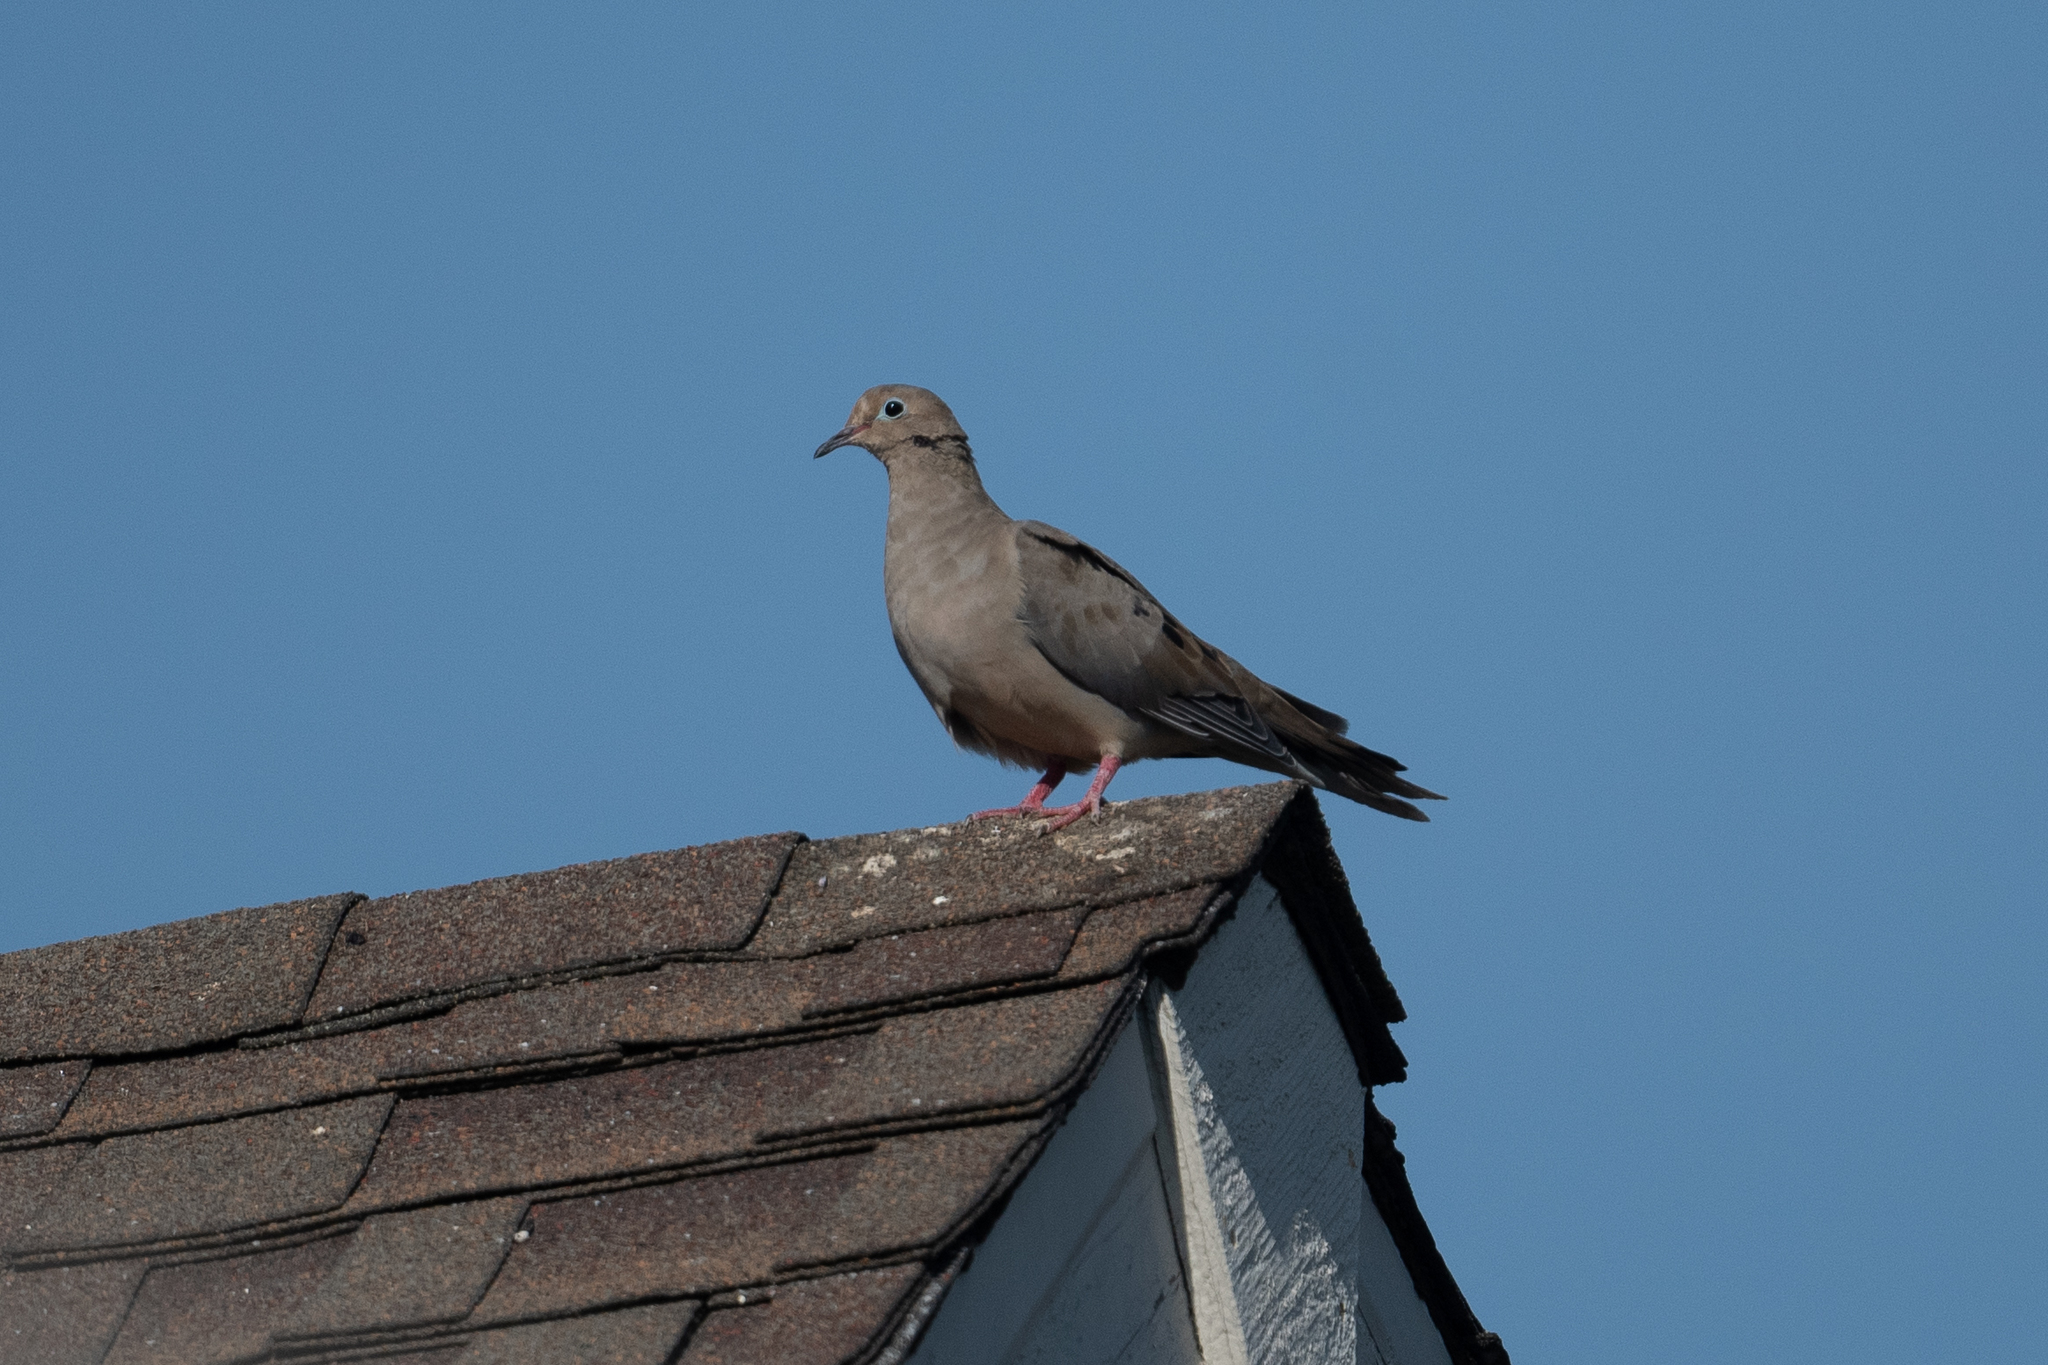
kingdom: Animalia
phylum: Chordata
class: Aves
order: Columbiformes
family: Columbidae
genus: Zenaida
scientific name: Zenaida macroura
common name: Mourning dove
